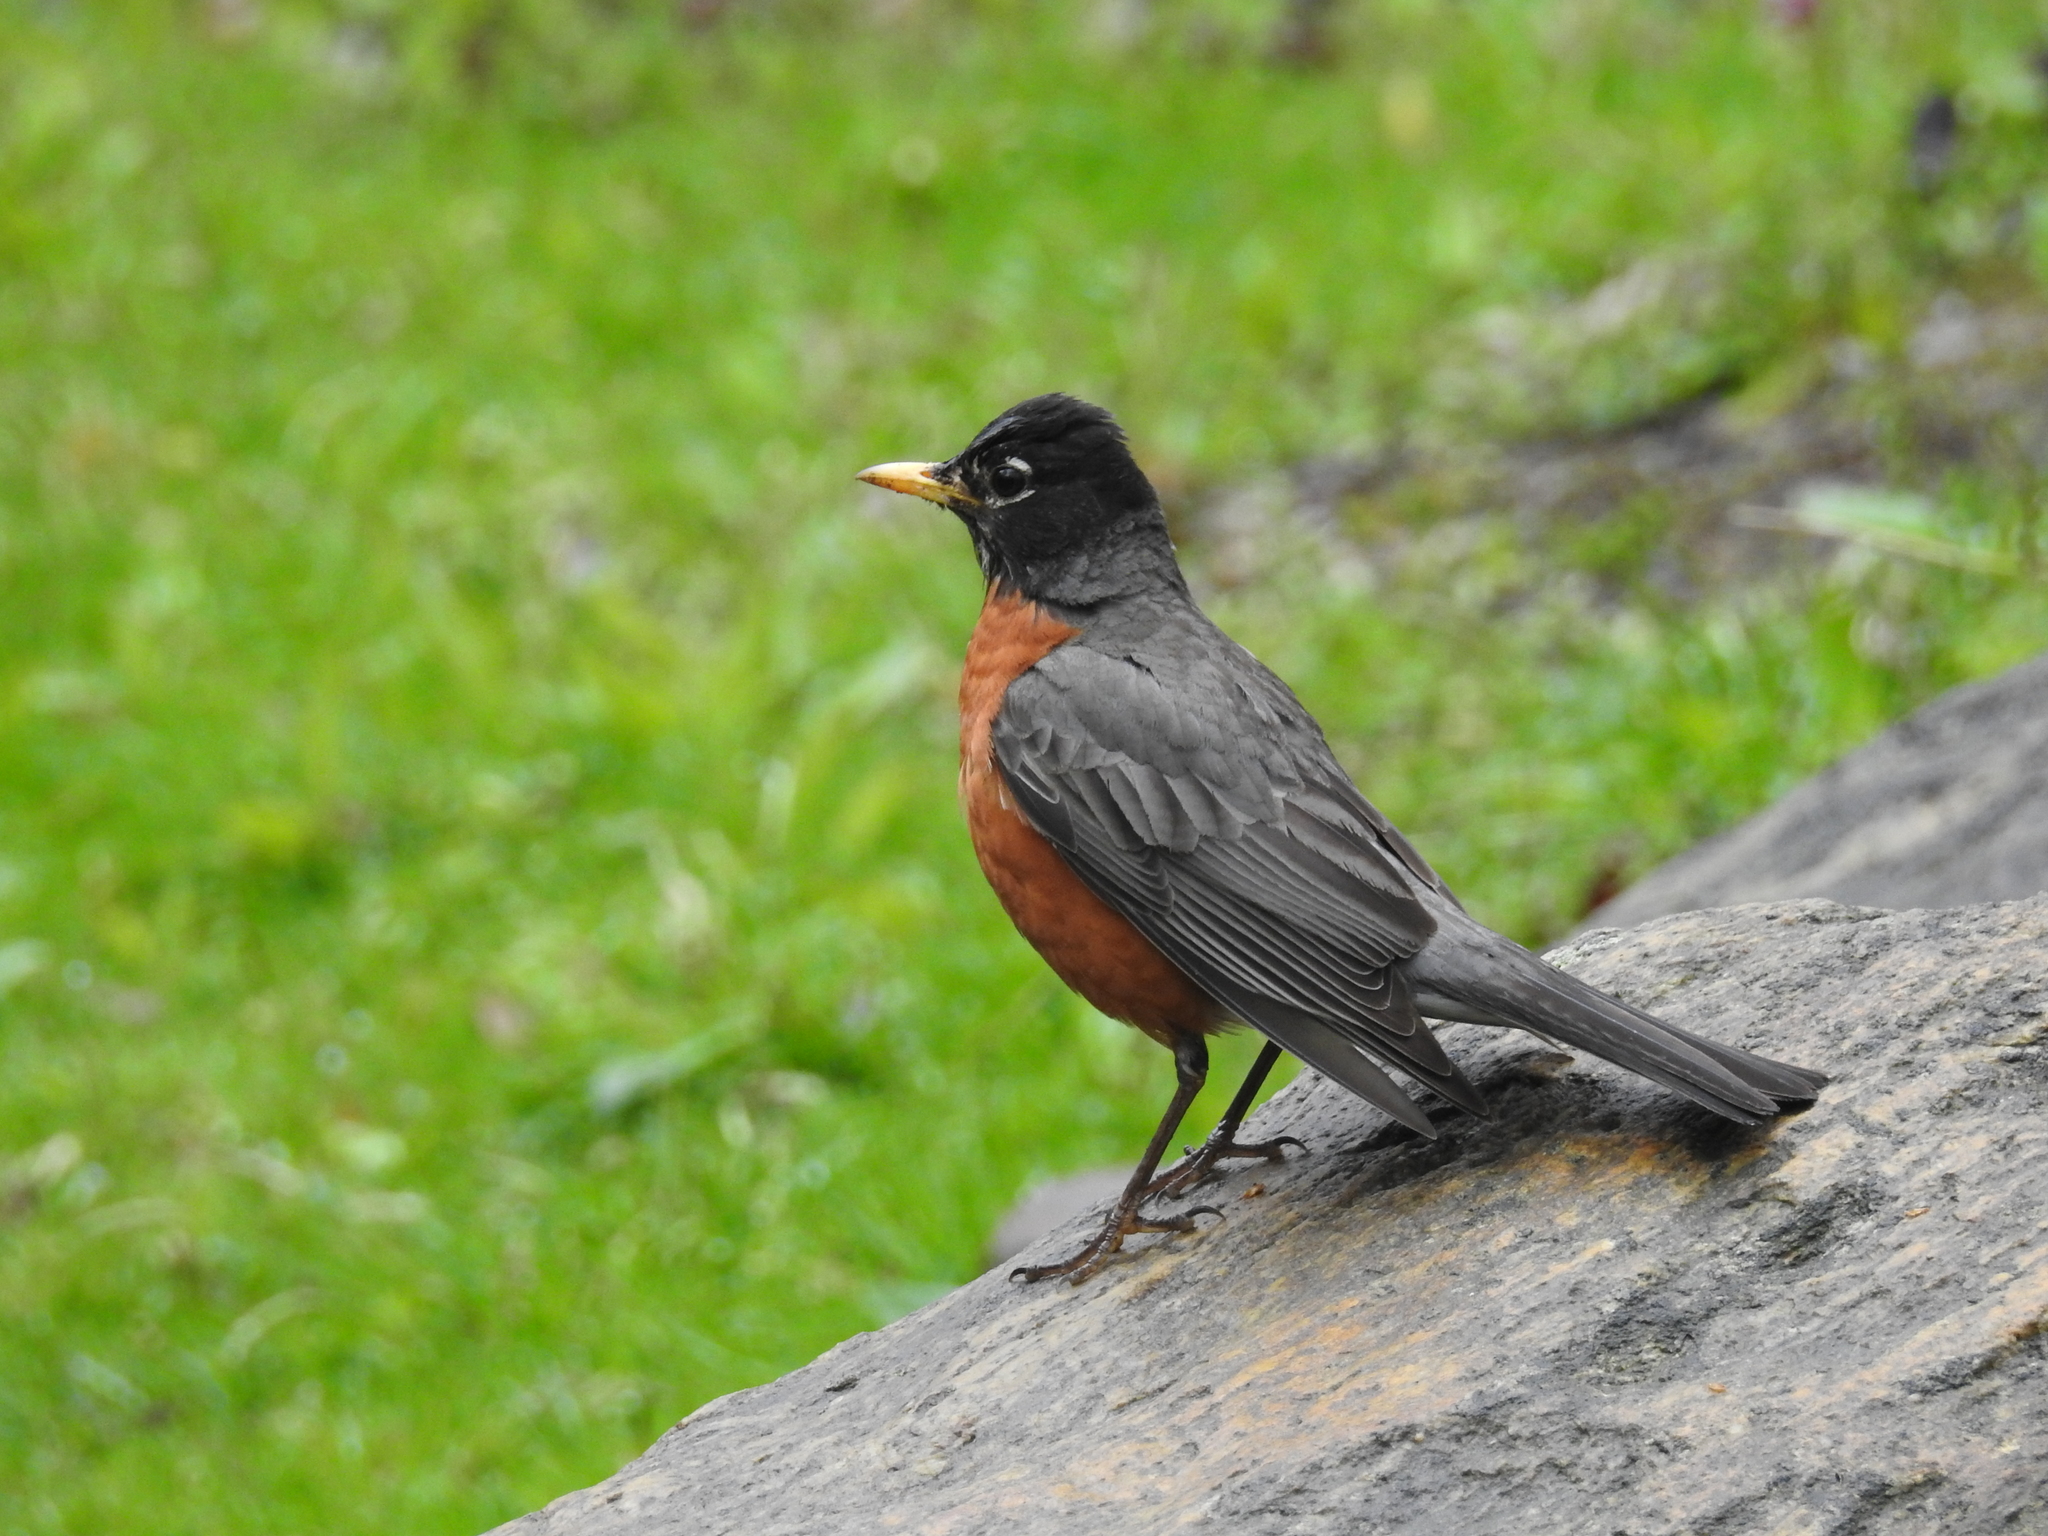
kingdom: Animalia
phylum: Chordata
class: Aves
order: Passeriformes
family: Turdidae
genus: Turdus
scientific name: Turdus migratorius
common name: American robin
